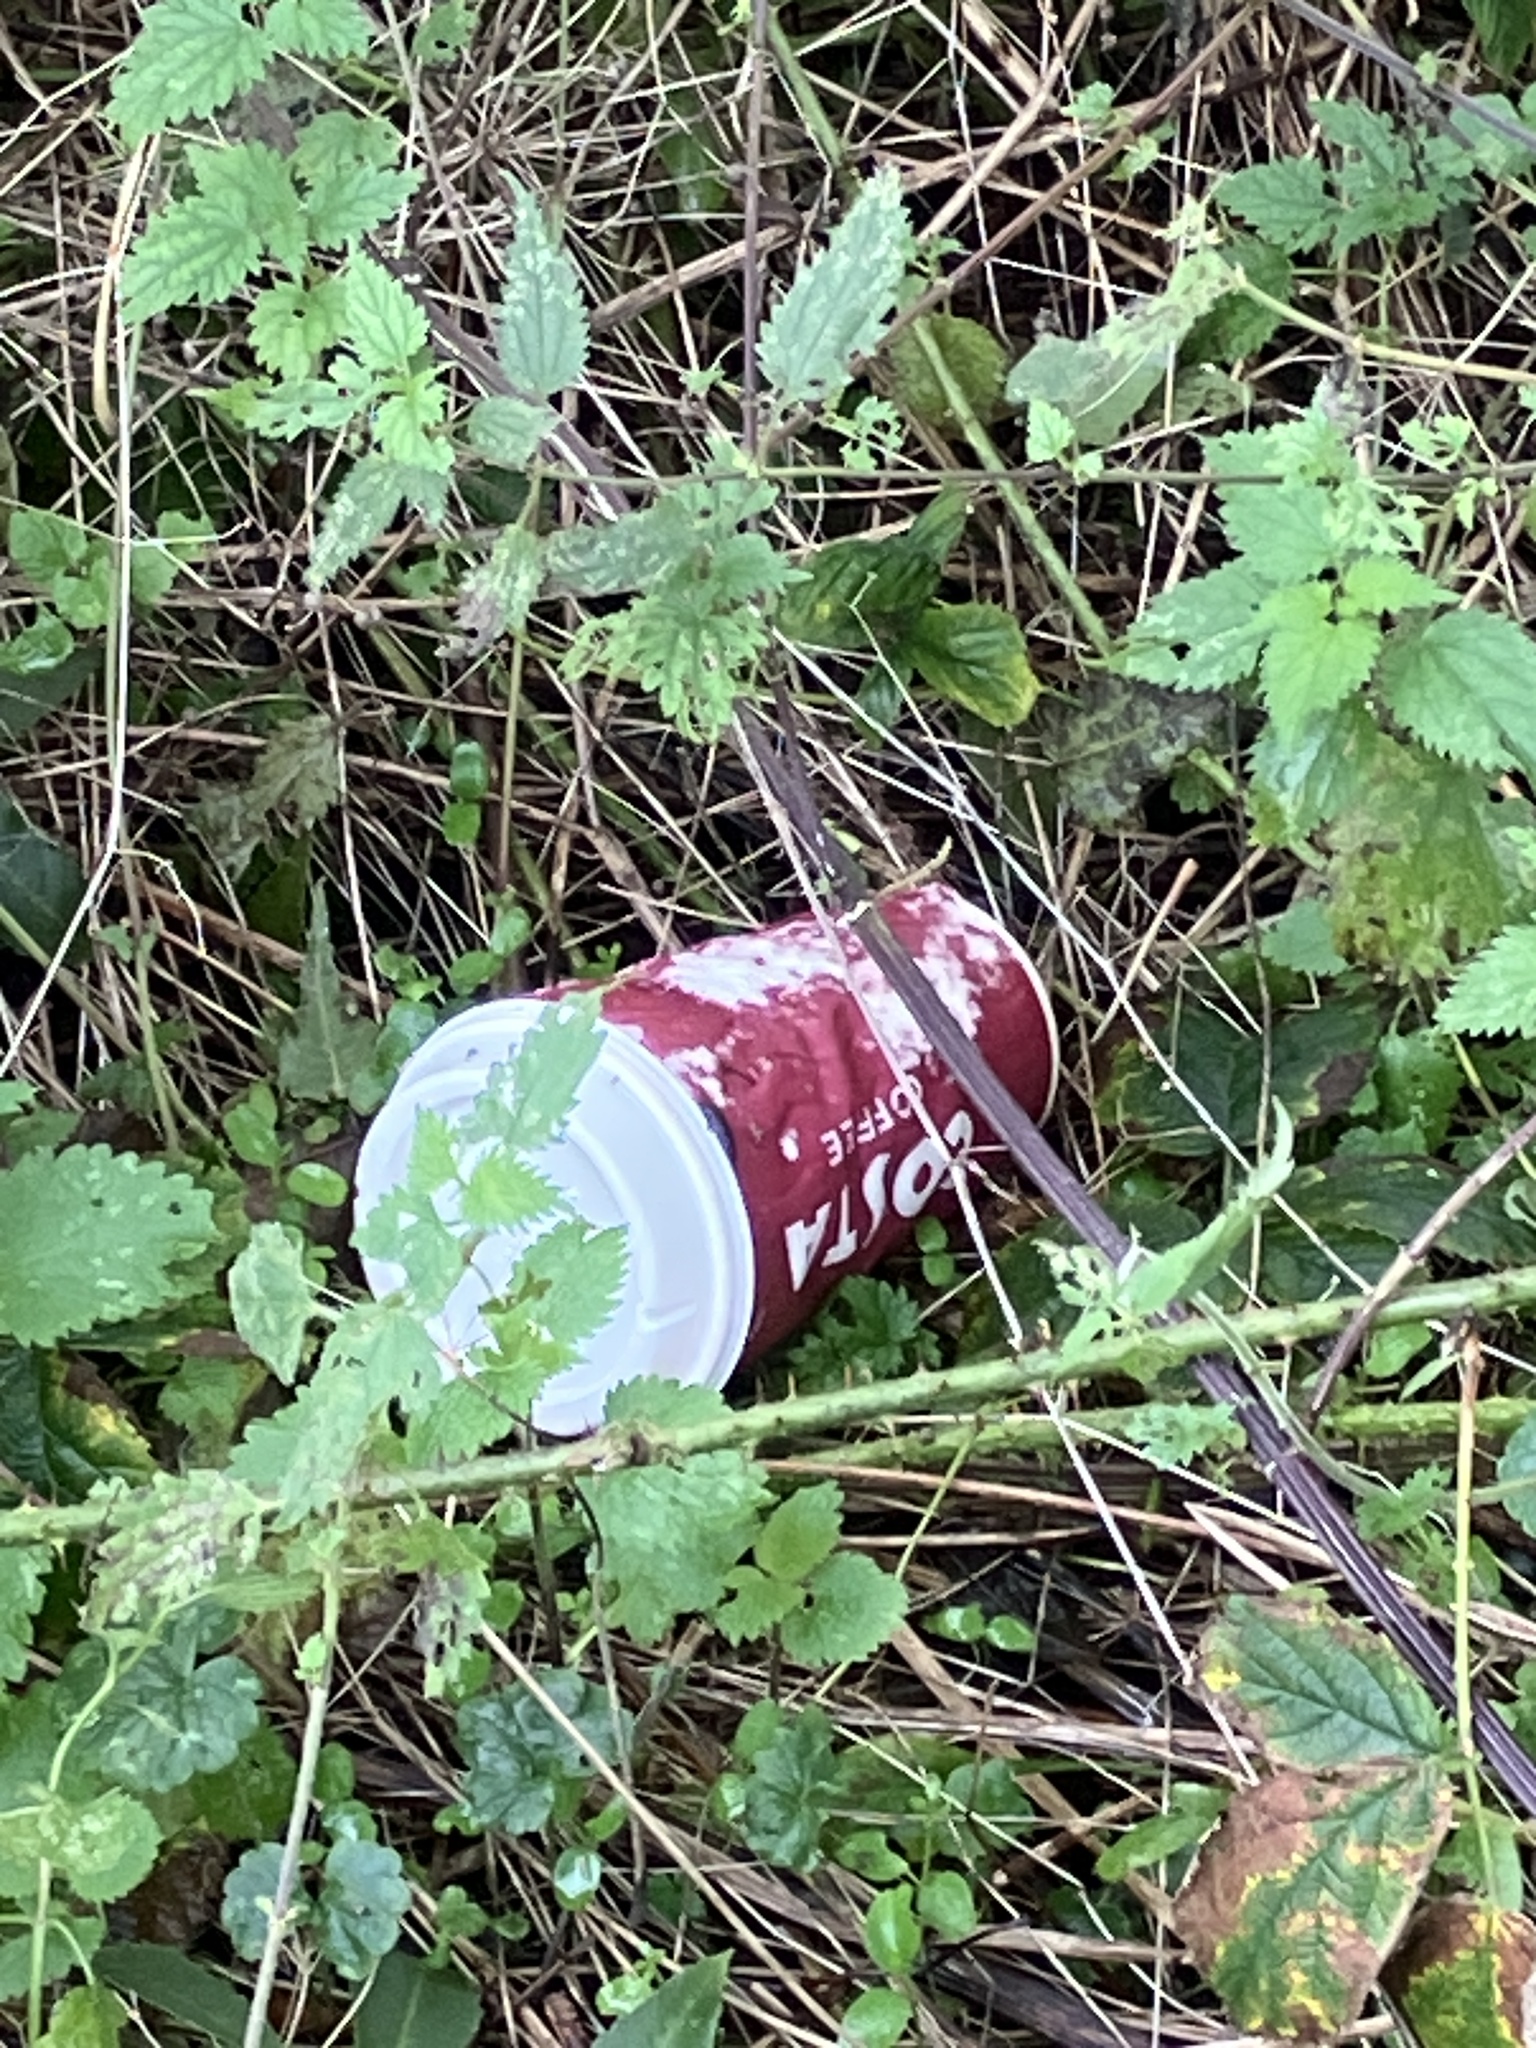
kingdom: Plantae
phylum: Tracheophyta
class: Magnoliopsida
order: Rosales
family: Urticaceae
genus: Urtica
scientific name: Urtica dioica
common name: Common nettle
